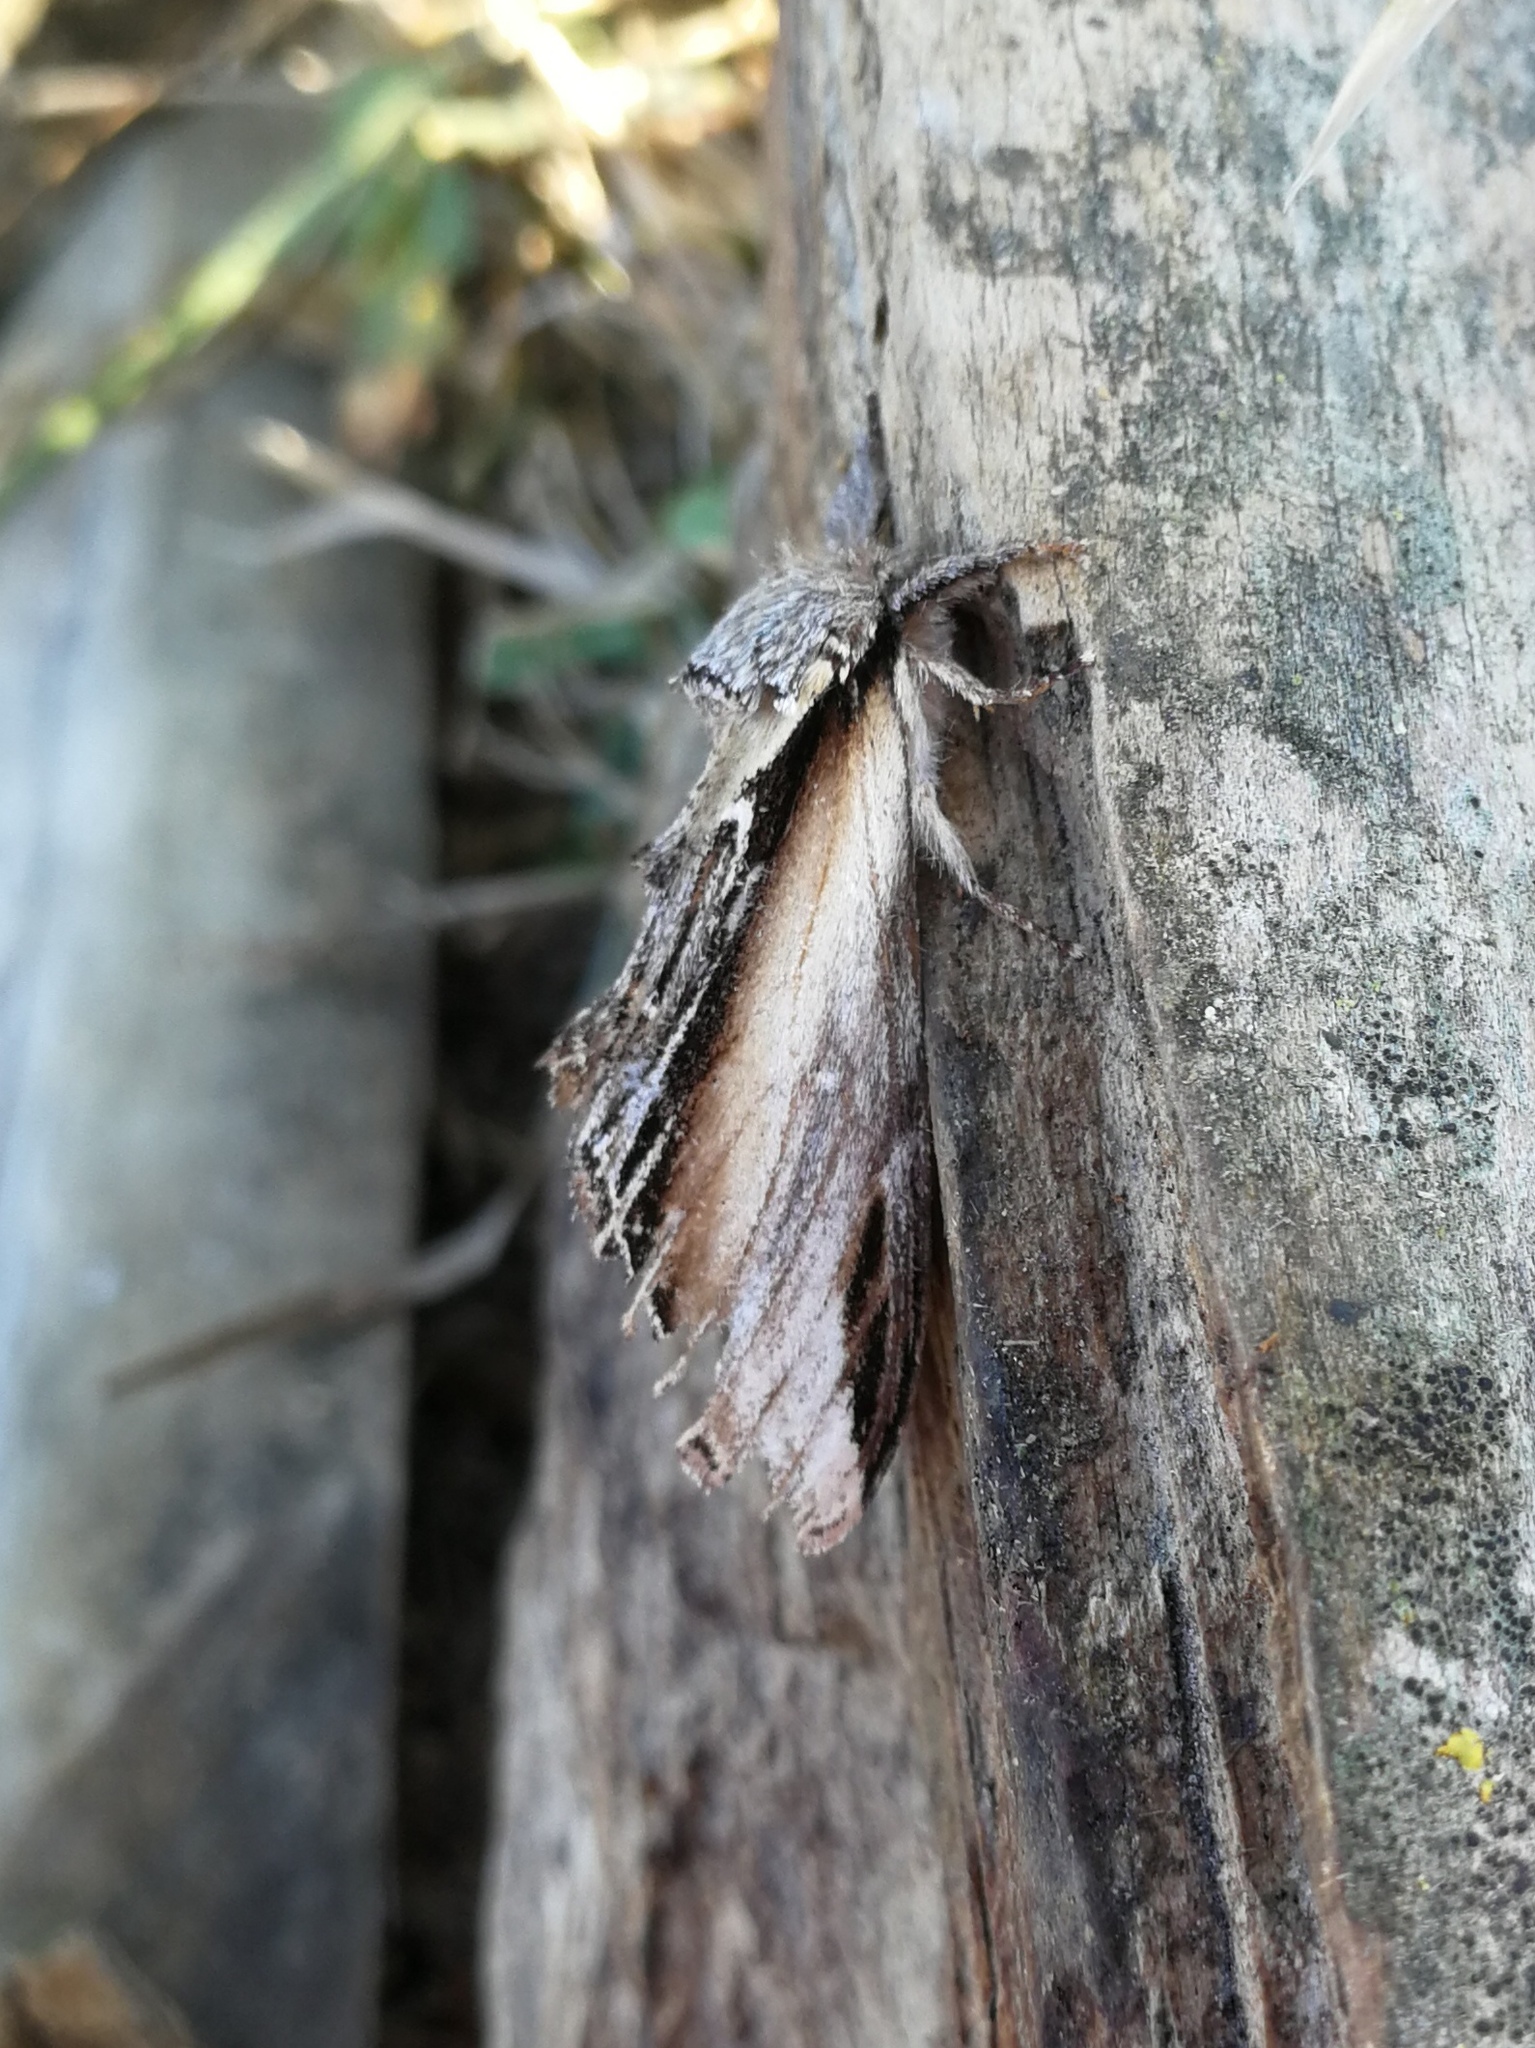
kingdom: Animalia
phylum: Arthropoda
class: Insecta
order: Lepidoptera
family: Notodontidae
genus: Pheosia
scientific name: Pheosia tremula
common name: Swallow prominent
